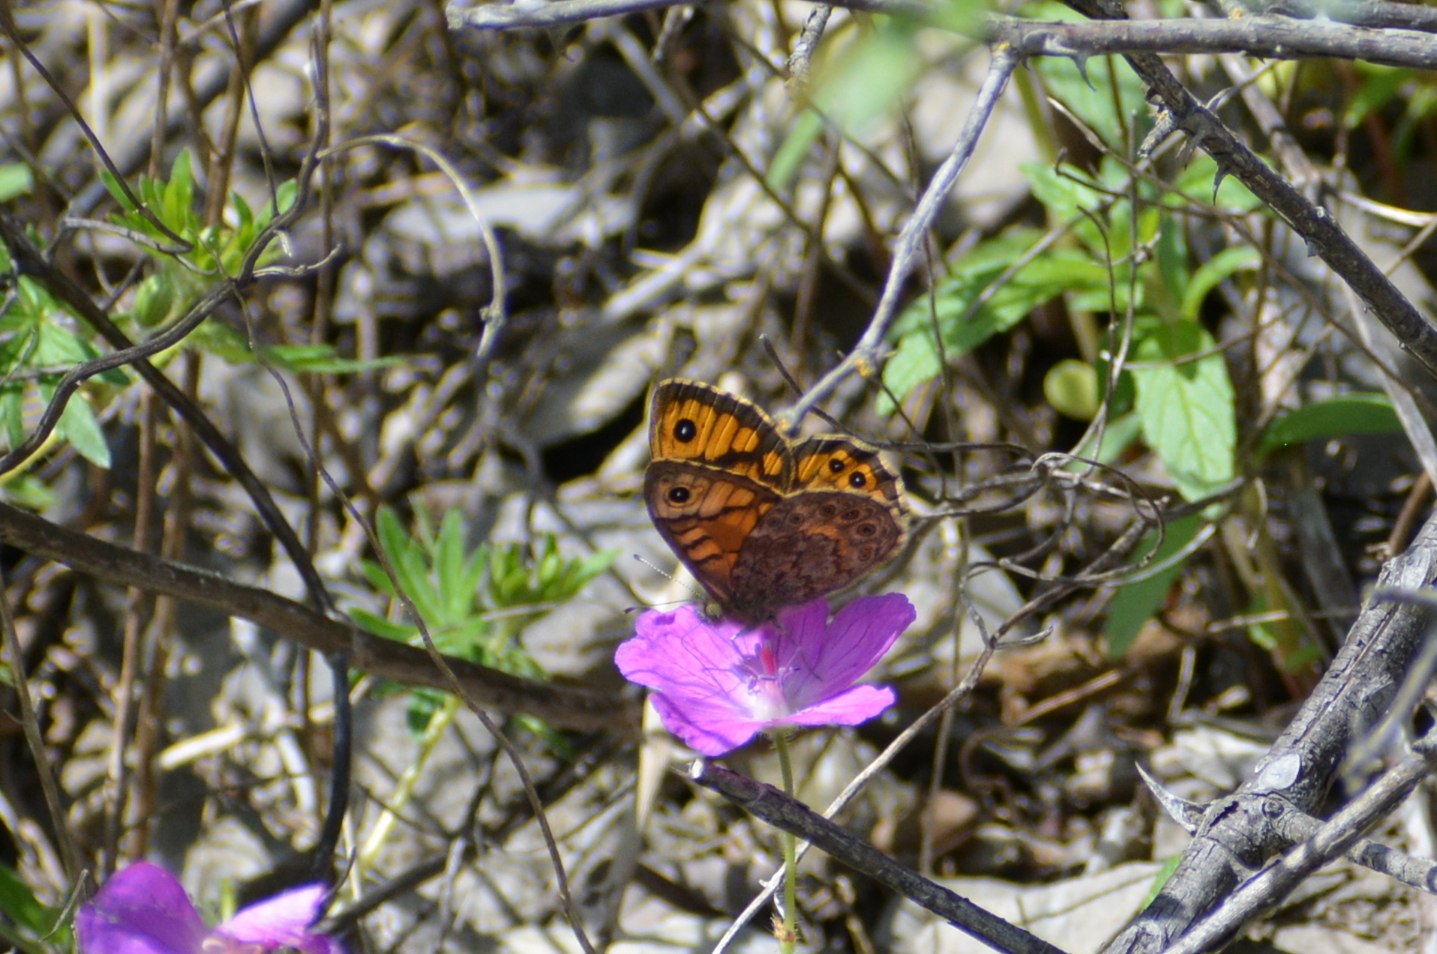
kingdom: Animalia
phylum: Arthropoda
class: Insecta
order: Lepidoptera
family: Nymphalidae
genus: Pararge
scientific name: Pararge Lasiommata megera
